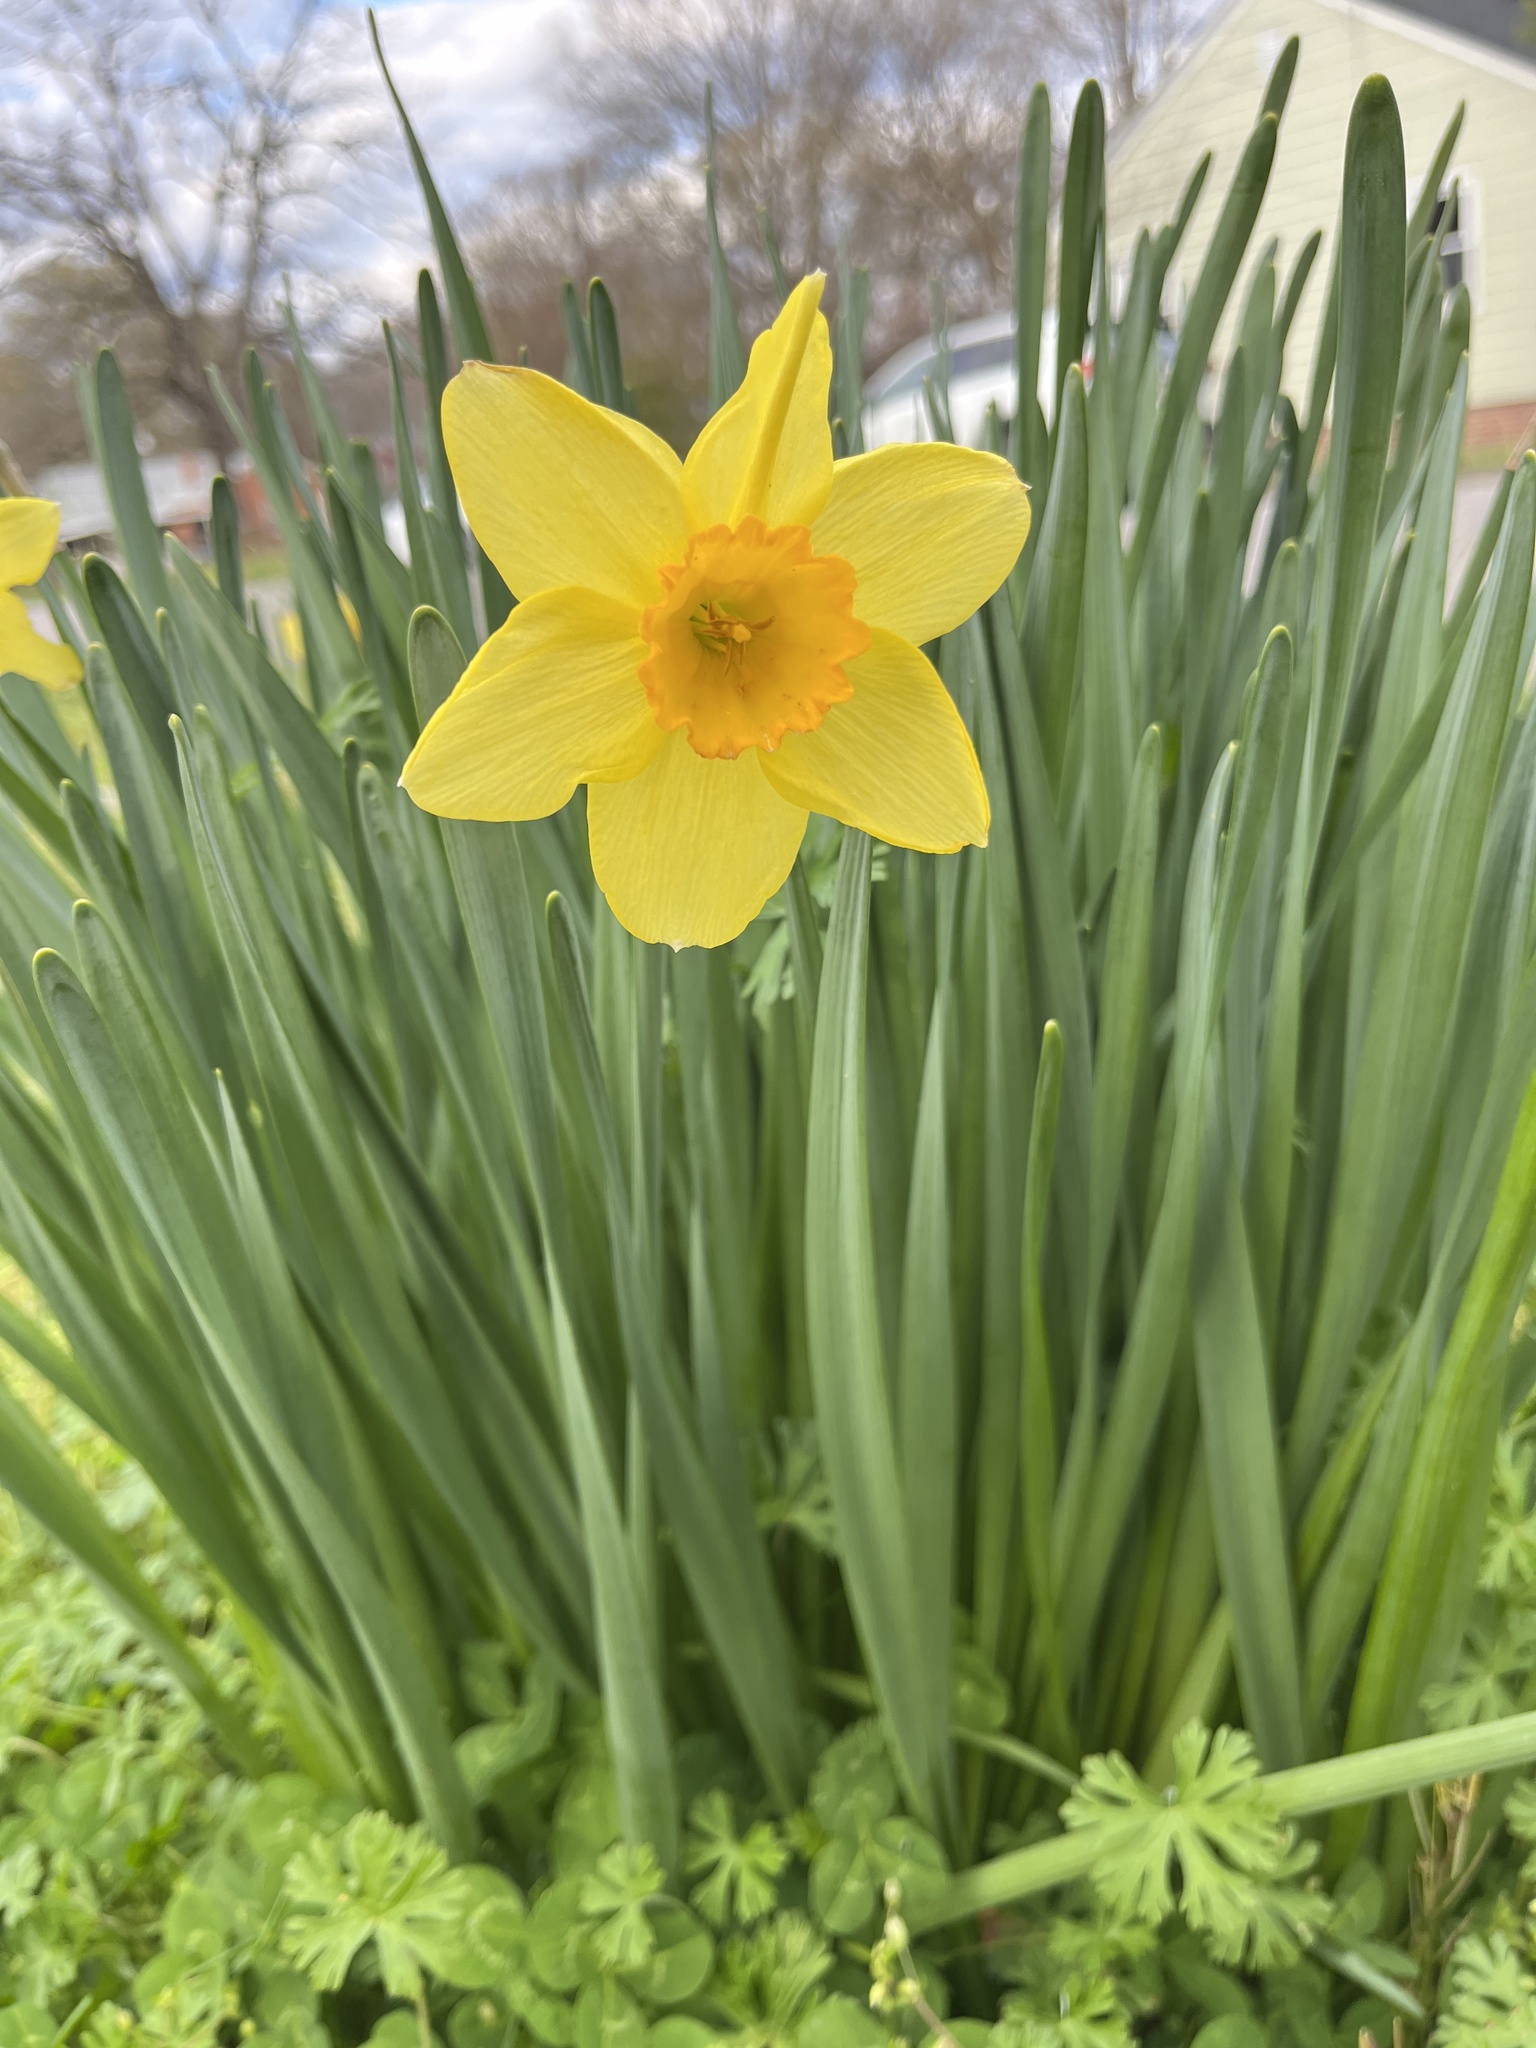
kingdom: Plantae
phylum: Tracheophyta
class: Liliopsida
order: Asparagales
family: Amaryllidaceae
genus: Narcissus
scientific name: Narcissus
